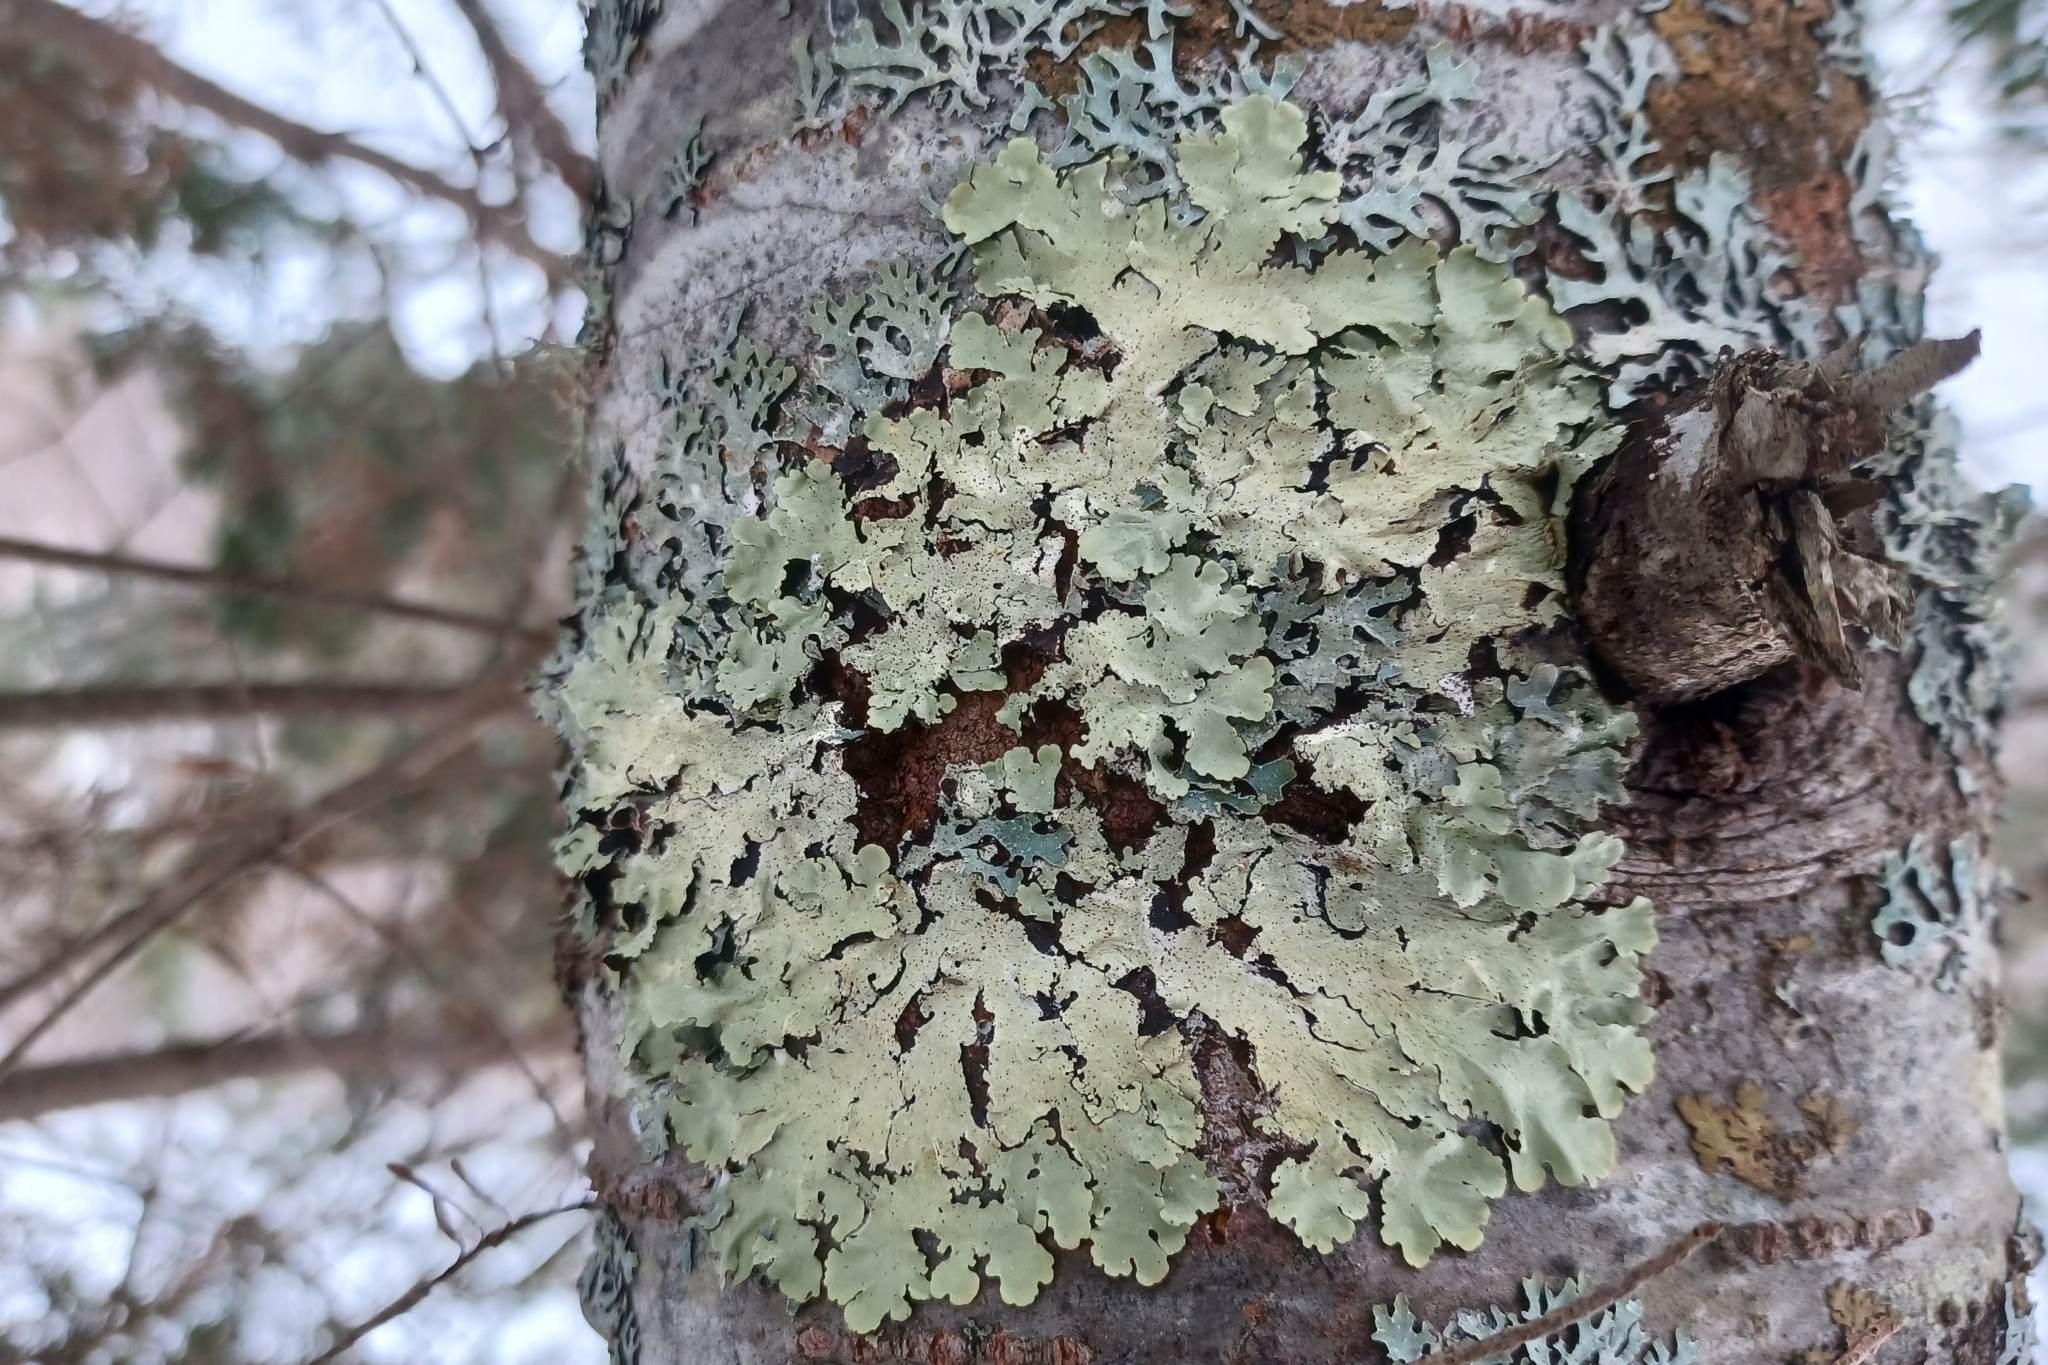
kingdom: Fungi
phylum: Ascomycota
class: Lecanoromycetes
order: Lecanorales
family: Parmeliaceae
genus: Flavoparmelia
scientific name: Flavoparmelia caperata
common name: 40-mile per hour lichen
